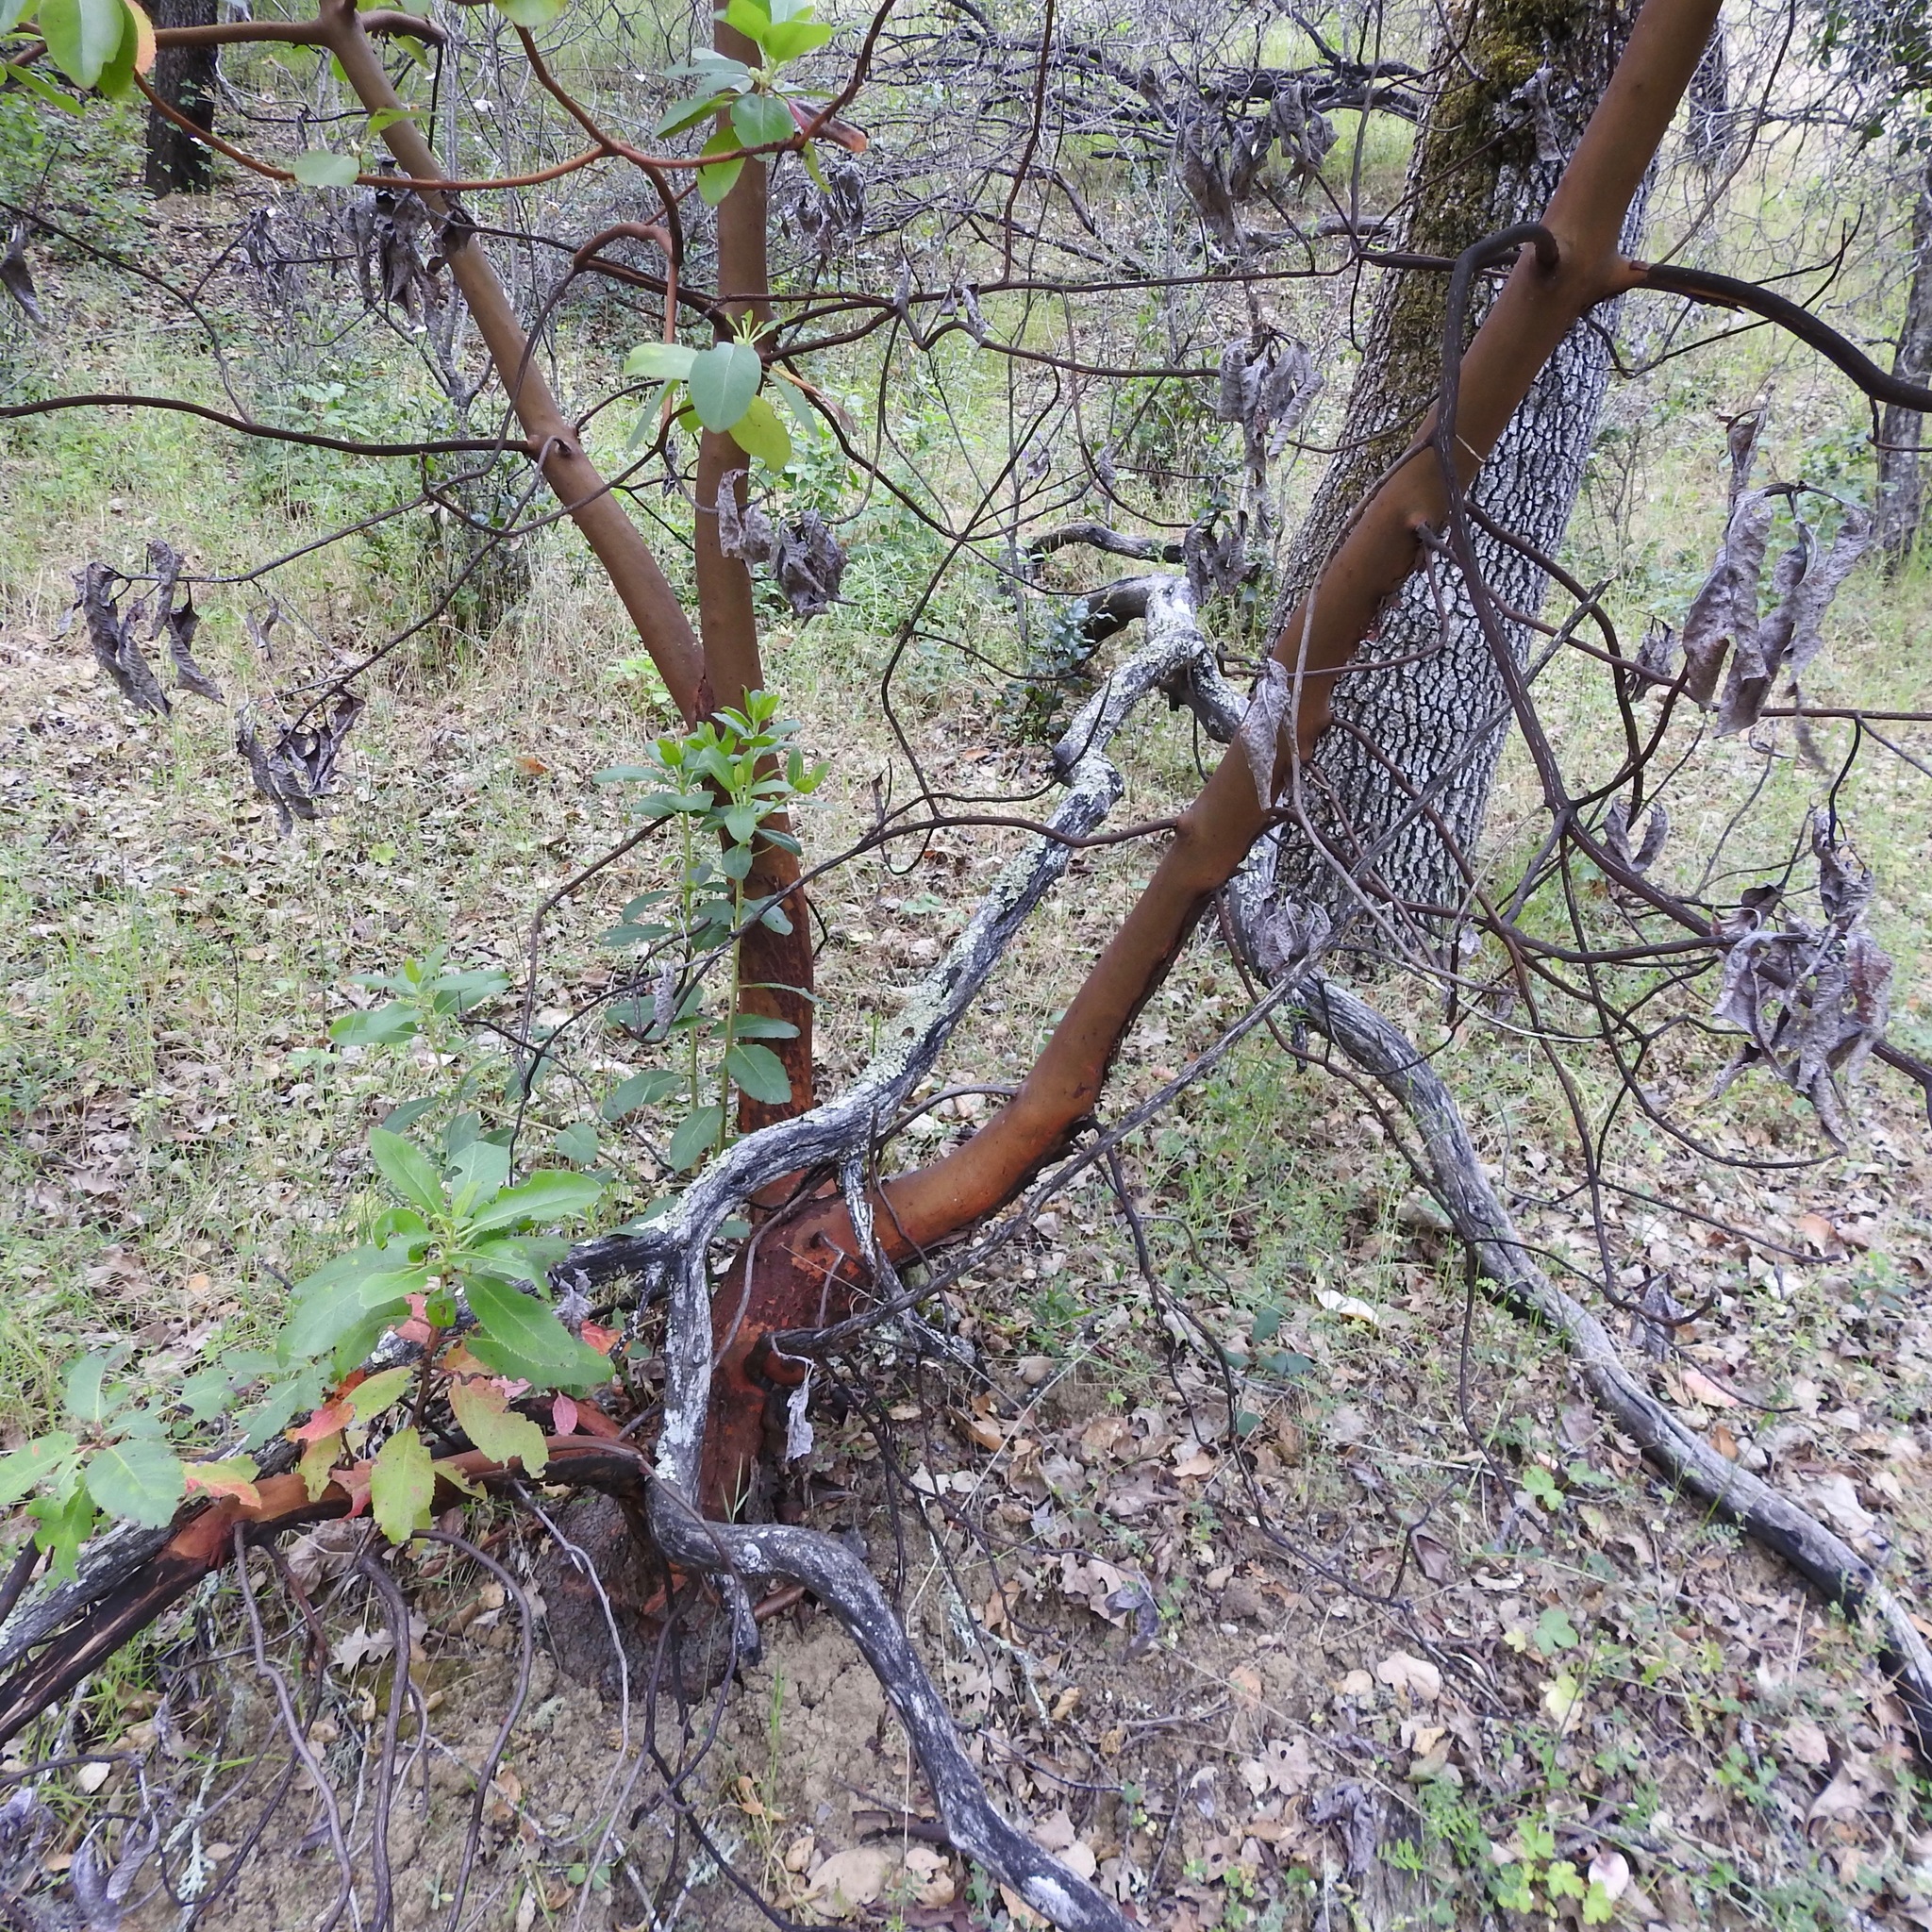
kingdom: Plantae
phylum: Tracheophyta
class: Magnoliopsida
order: Ericales
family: Ericaceae
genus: Arbutus
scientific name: Arbutus menziesii
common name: Pacific madrone
